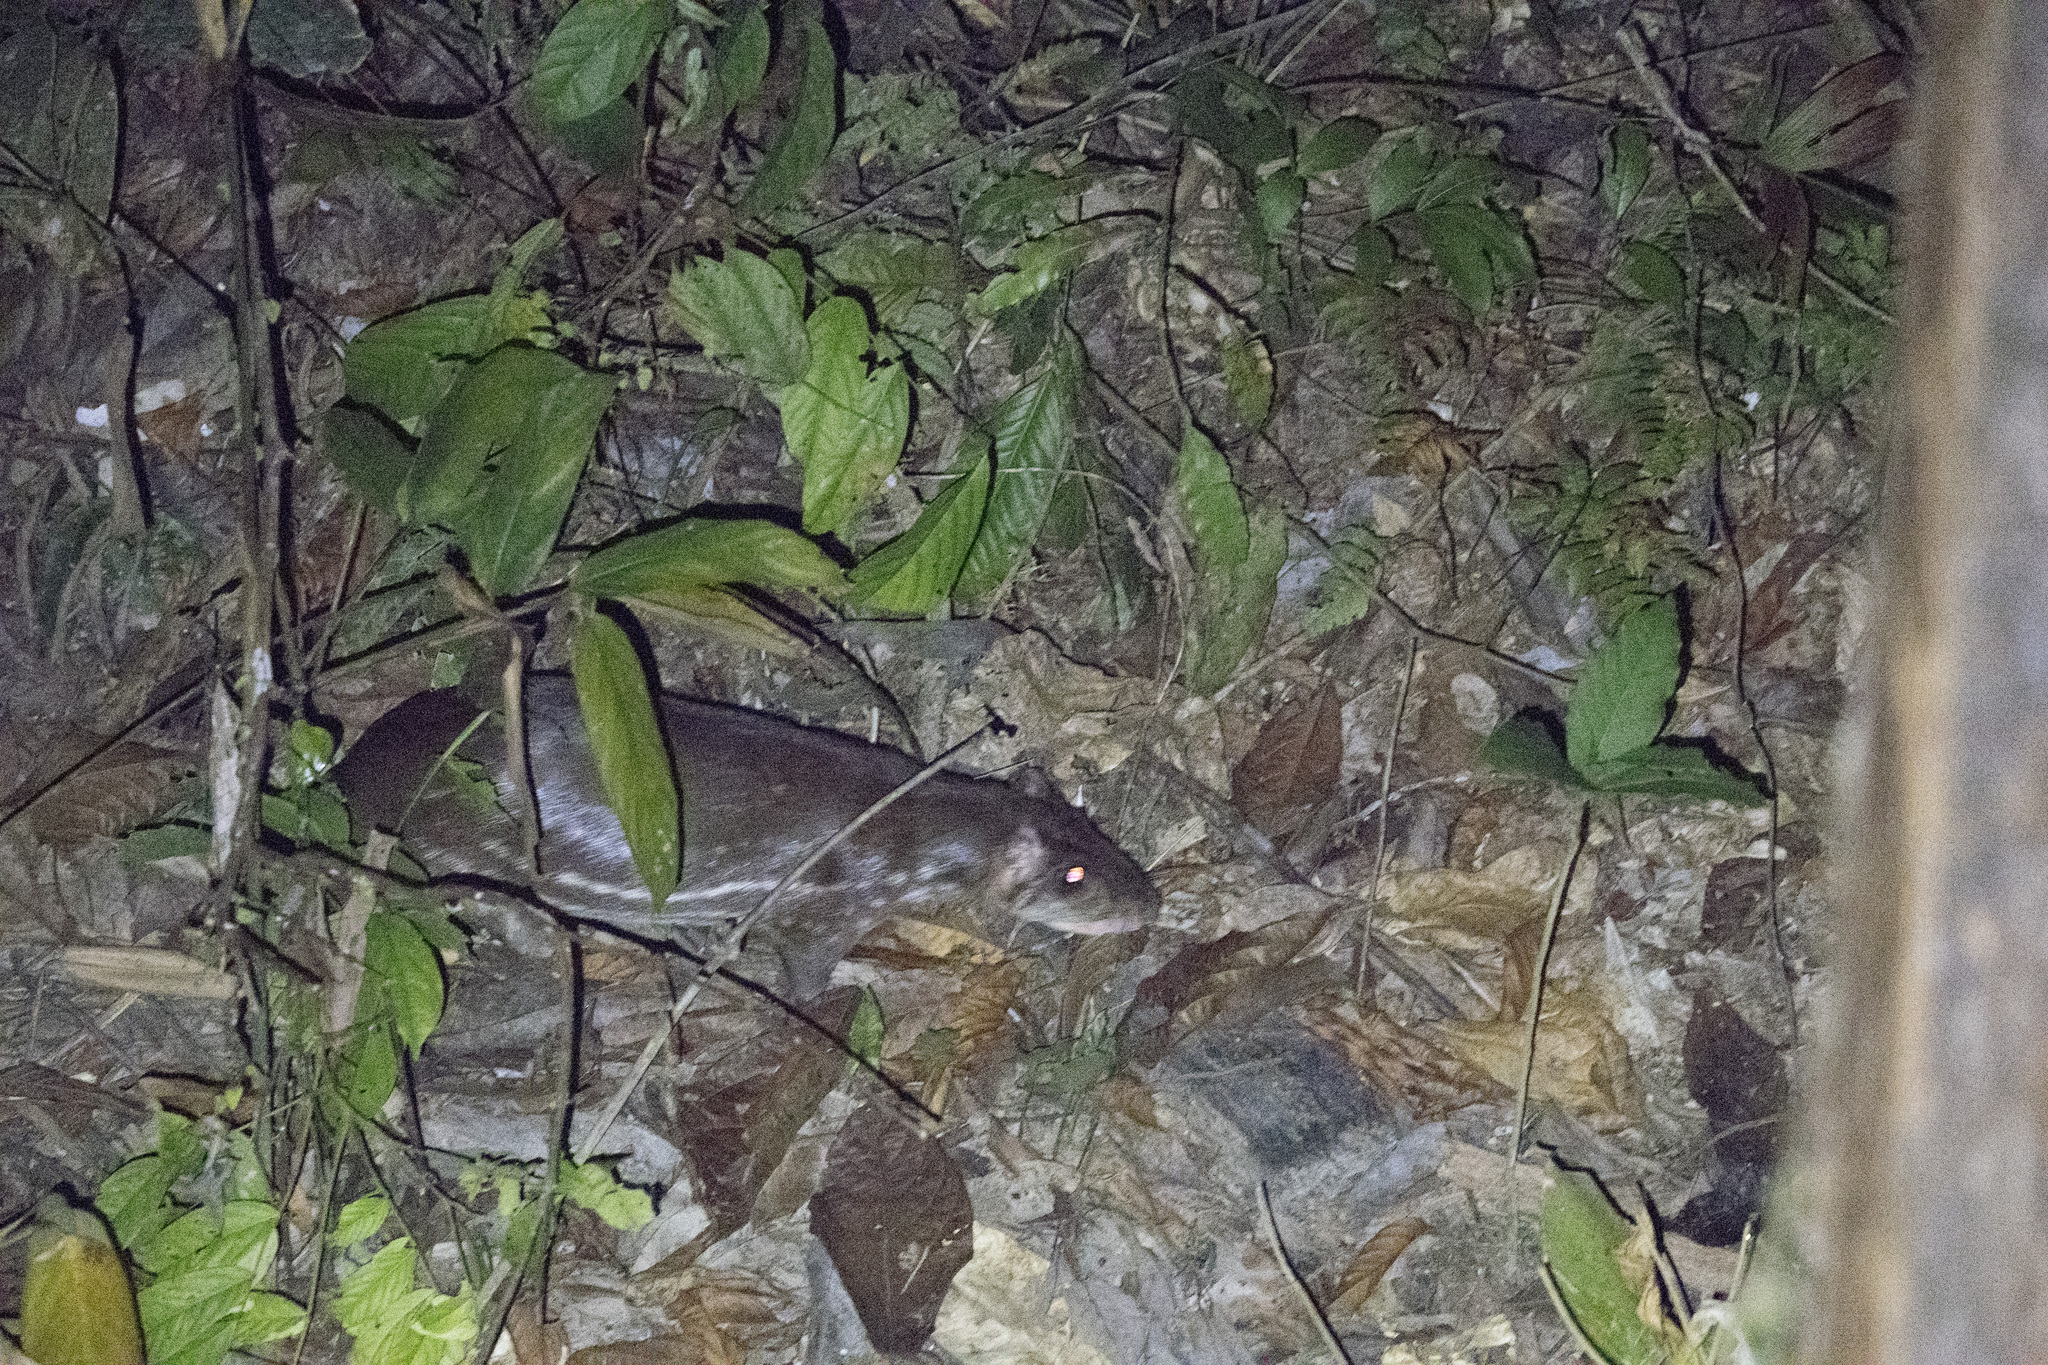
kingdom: Animalia
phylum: Chordata
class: Mammalia
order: Rodentia
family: Cuniculidae
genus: Cuniculus
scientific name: Cuniculus paca
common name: Lowland paca
